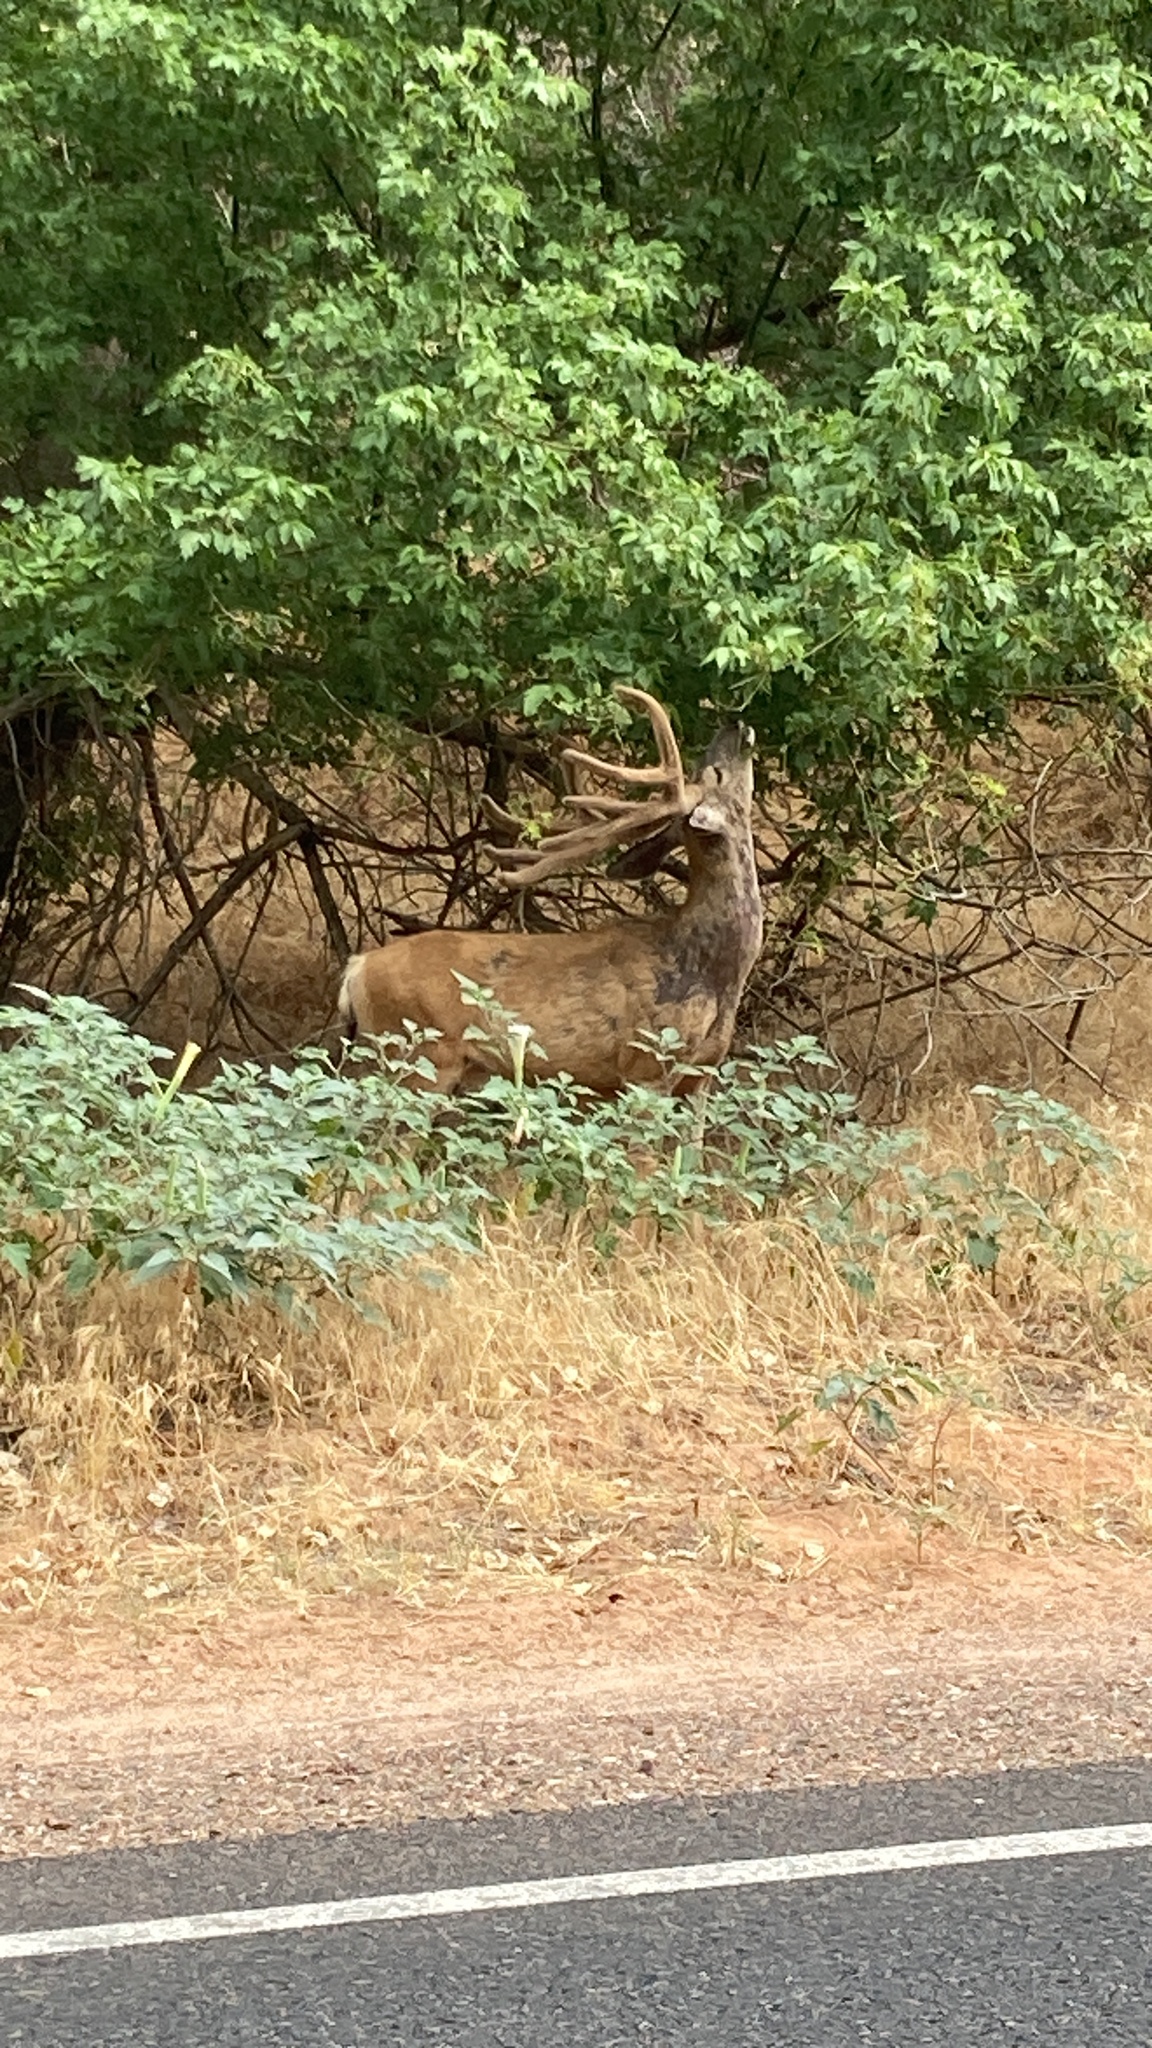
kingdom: Animalia
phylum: Chordata
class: Mammalia
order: Artiodactyla
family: Cervidae
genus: Odocoileus
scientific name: Odocoileus hemionus
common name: Mule deer
